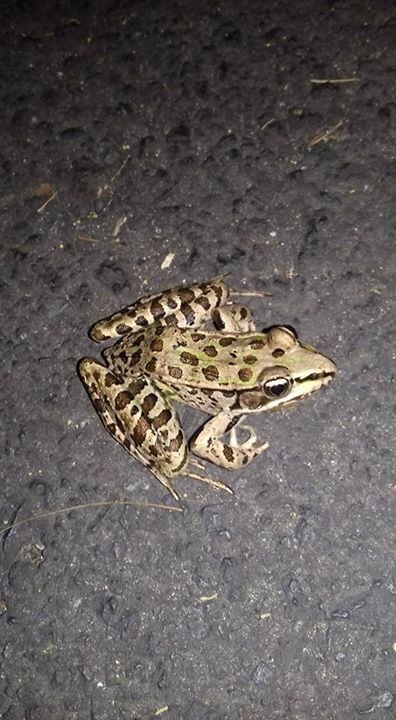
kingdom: Animalia
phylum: Chordata
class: Amphibia
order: Anura
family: Ranidae
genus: Lithobates
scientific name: Lithobates berlandieri
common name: Rio grande leopard frog
